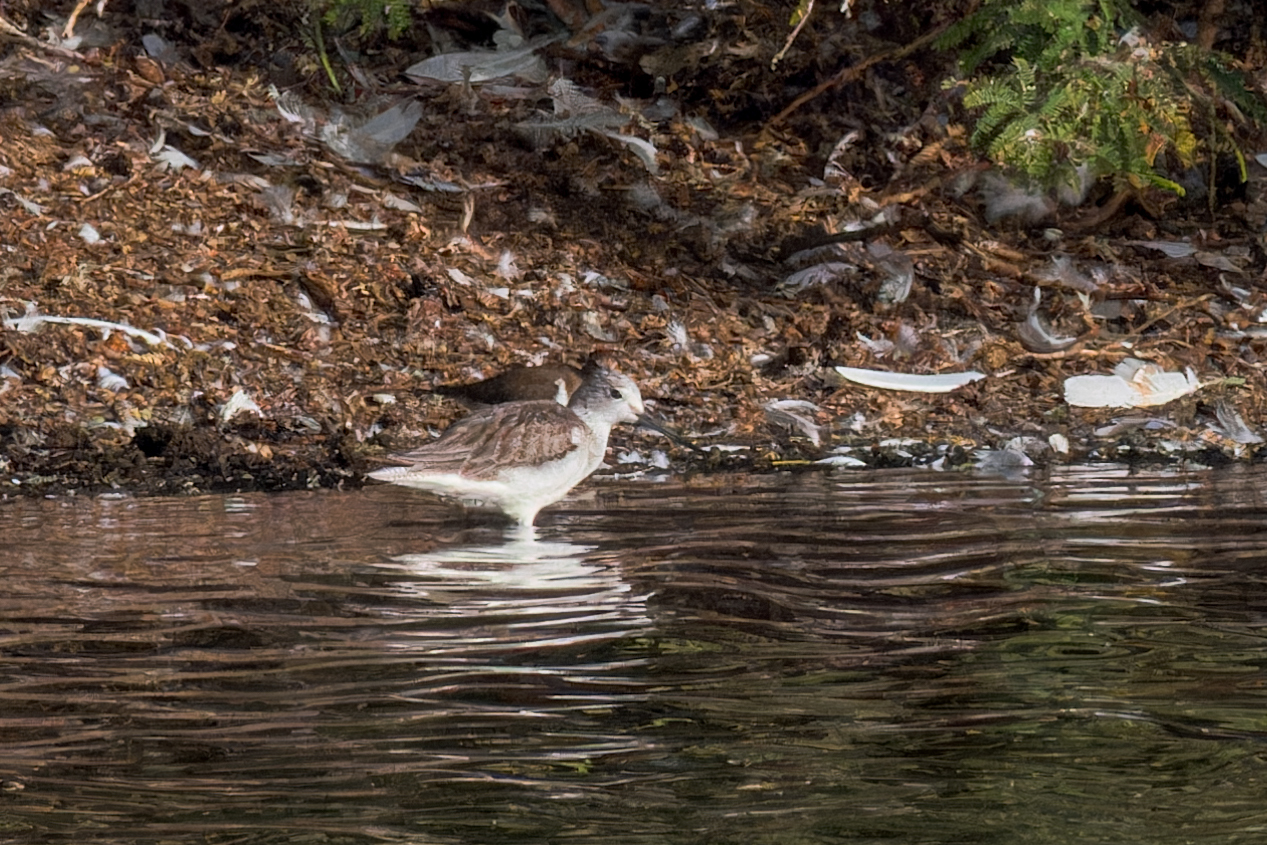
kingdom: Animalia
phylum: Chordata
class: Aves
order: Charadriiformes
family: Scolopacidae
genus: Tringa
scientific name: Tringa nebularia
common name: Common greenshank
